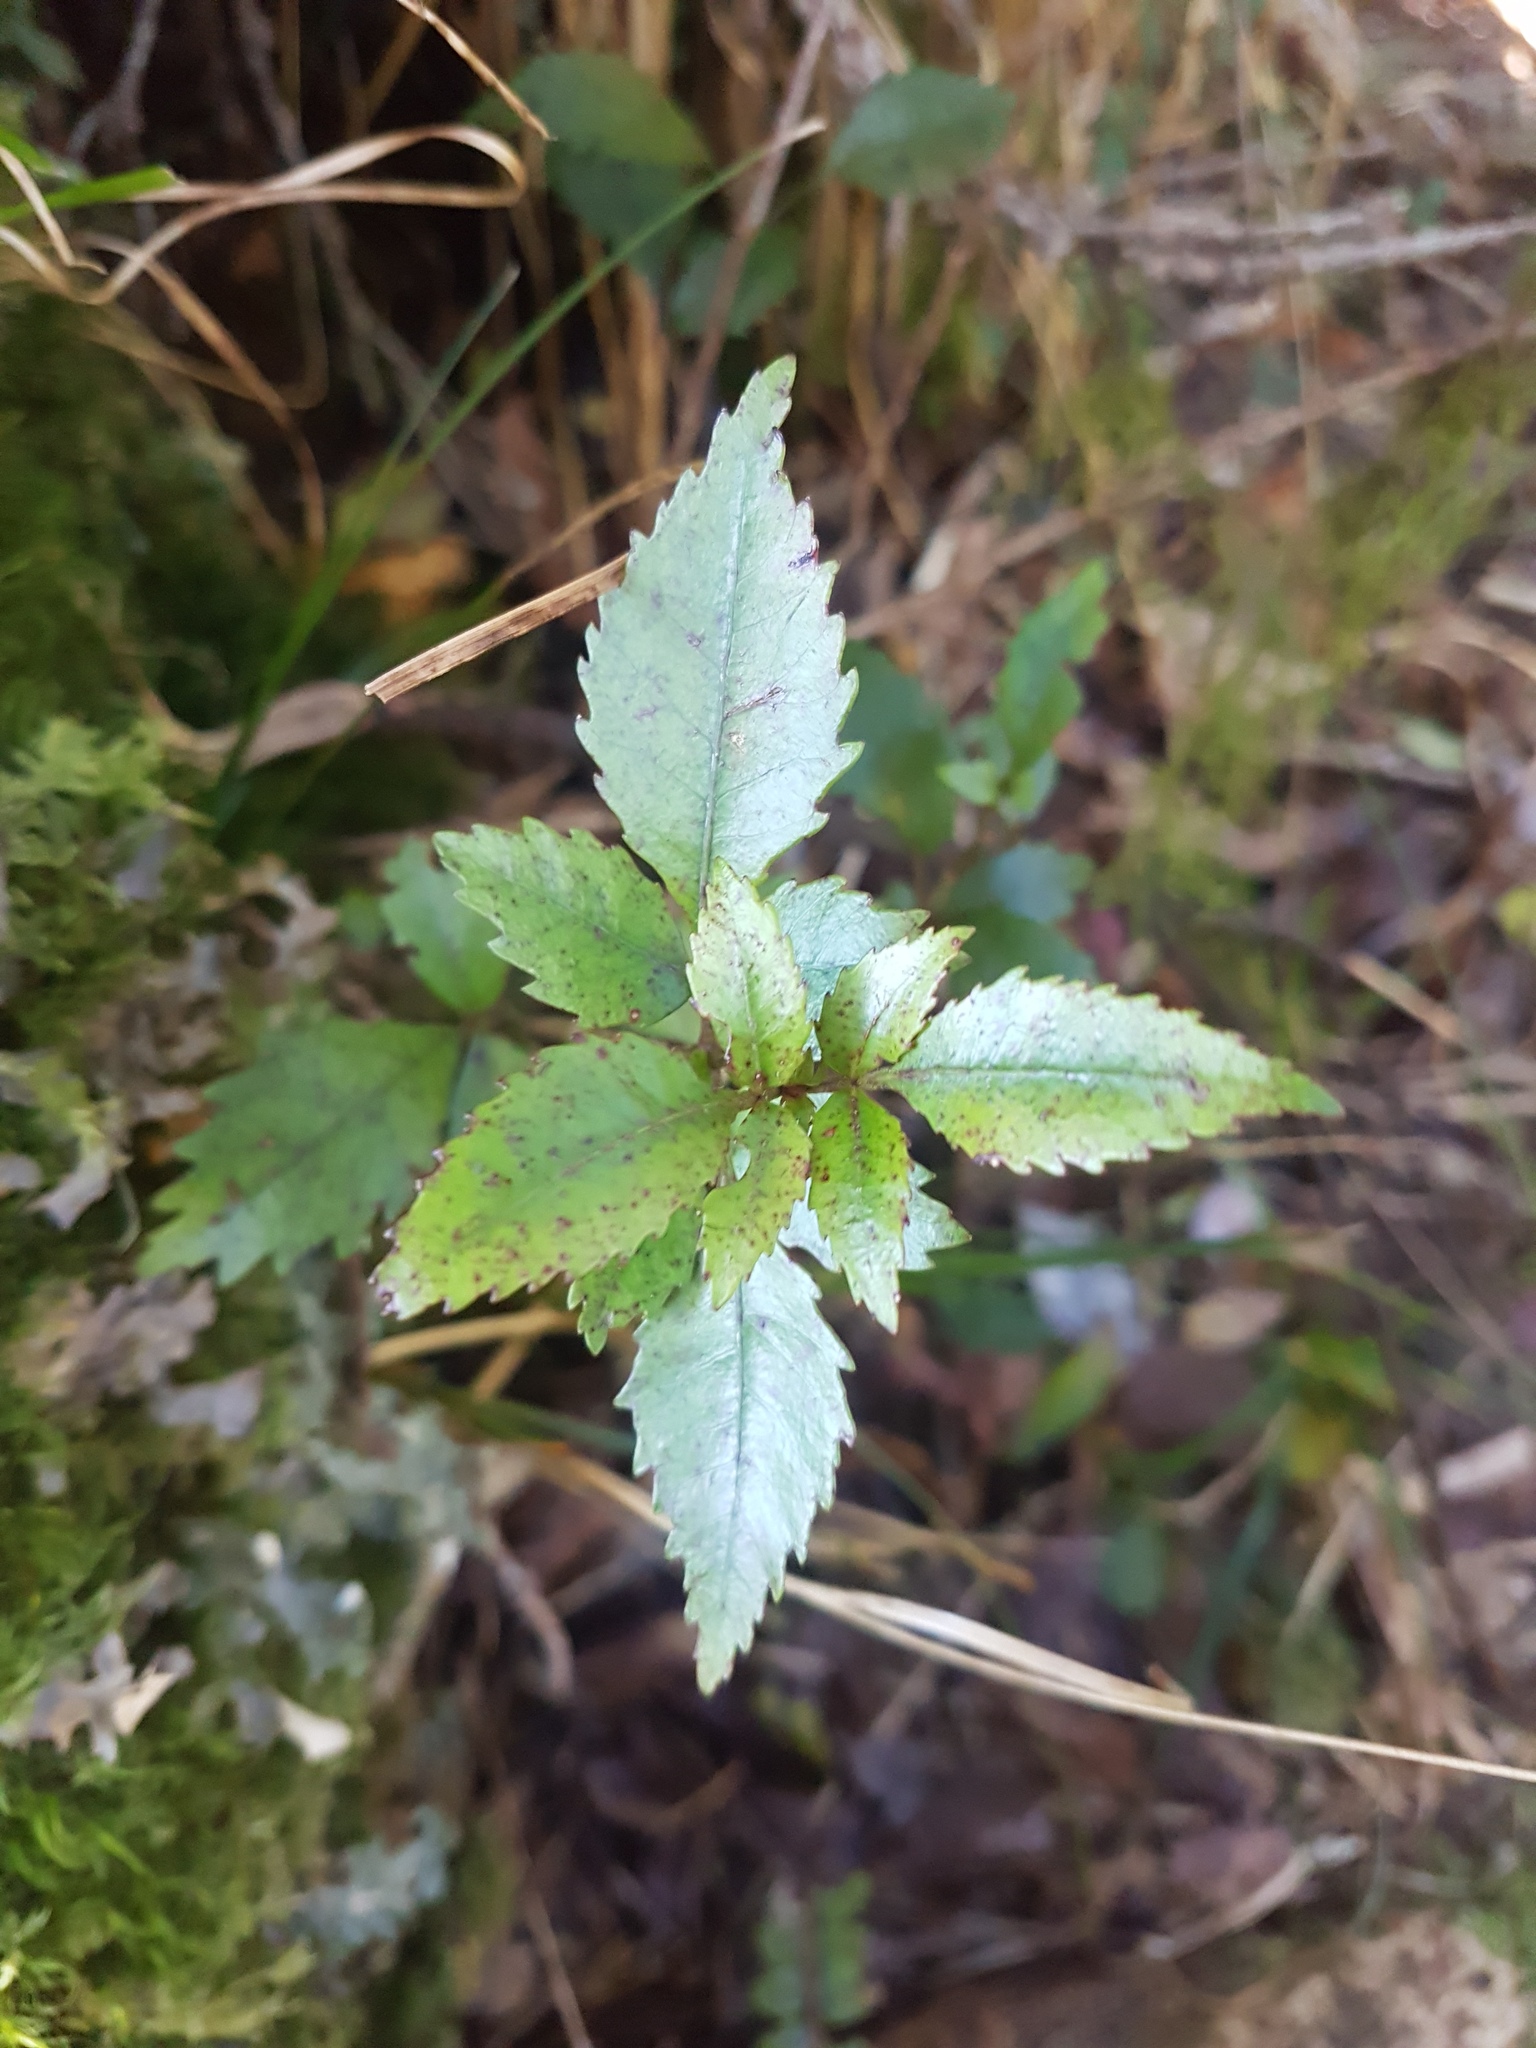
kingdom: Plantae
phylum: Tracheophyta
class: Magnoliopsida
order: Oxalidales
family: Cunoniaceae
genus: Pterophylla
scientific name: Pterophylla racemosa
